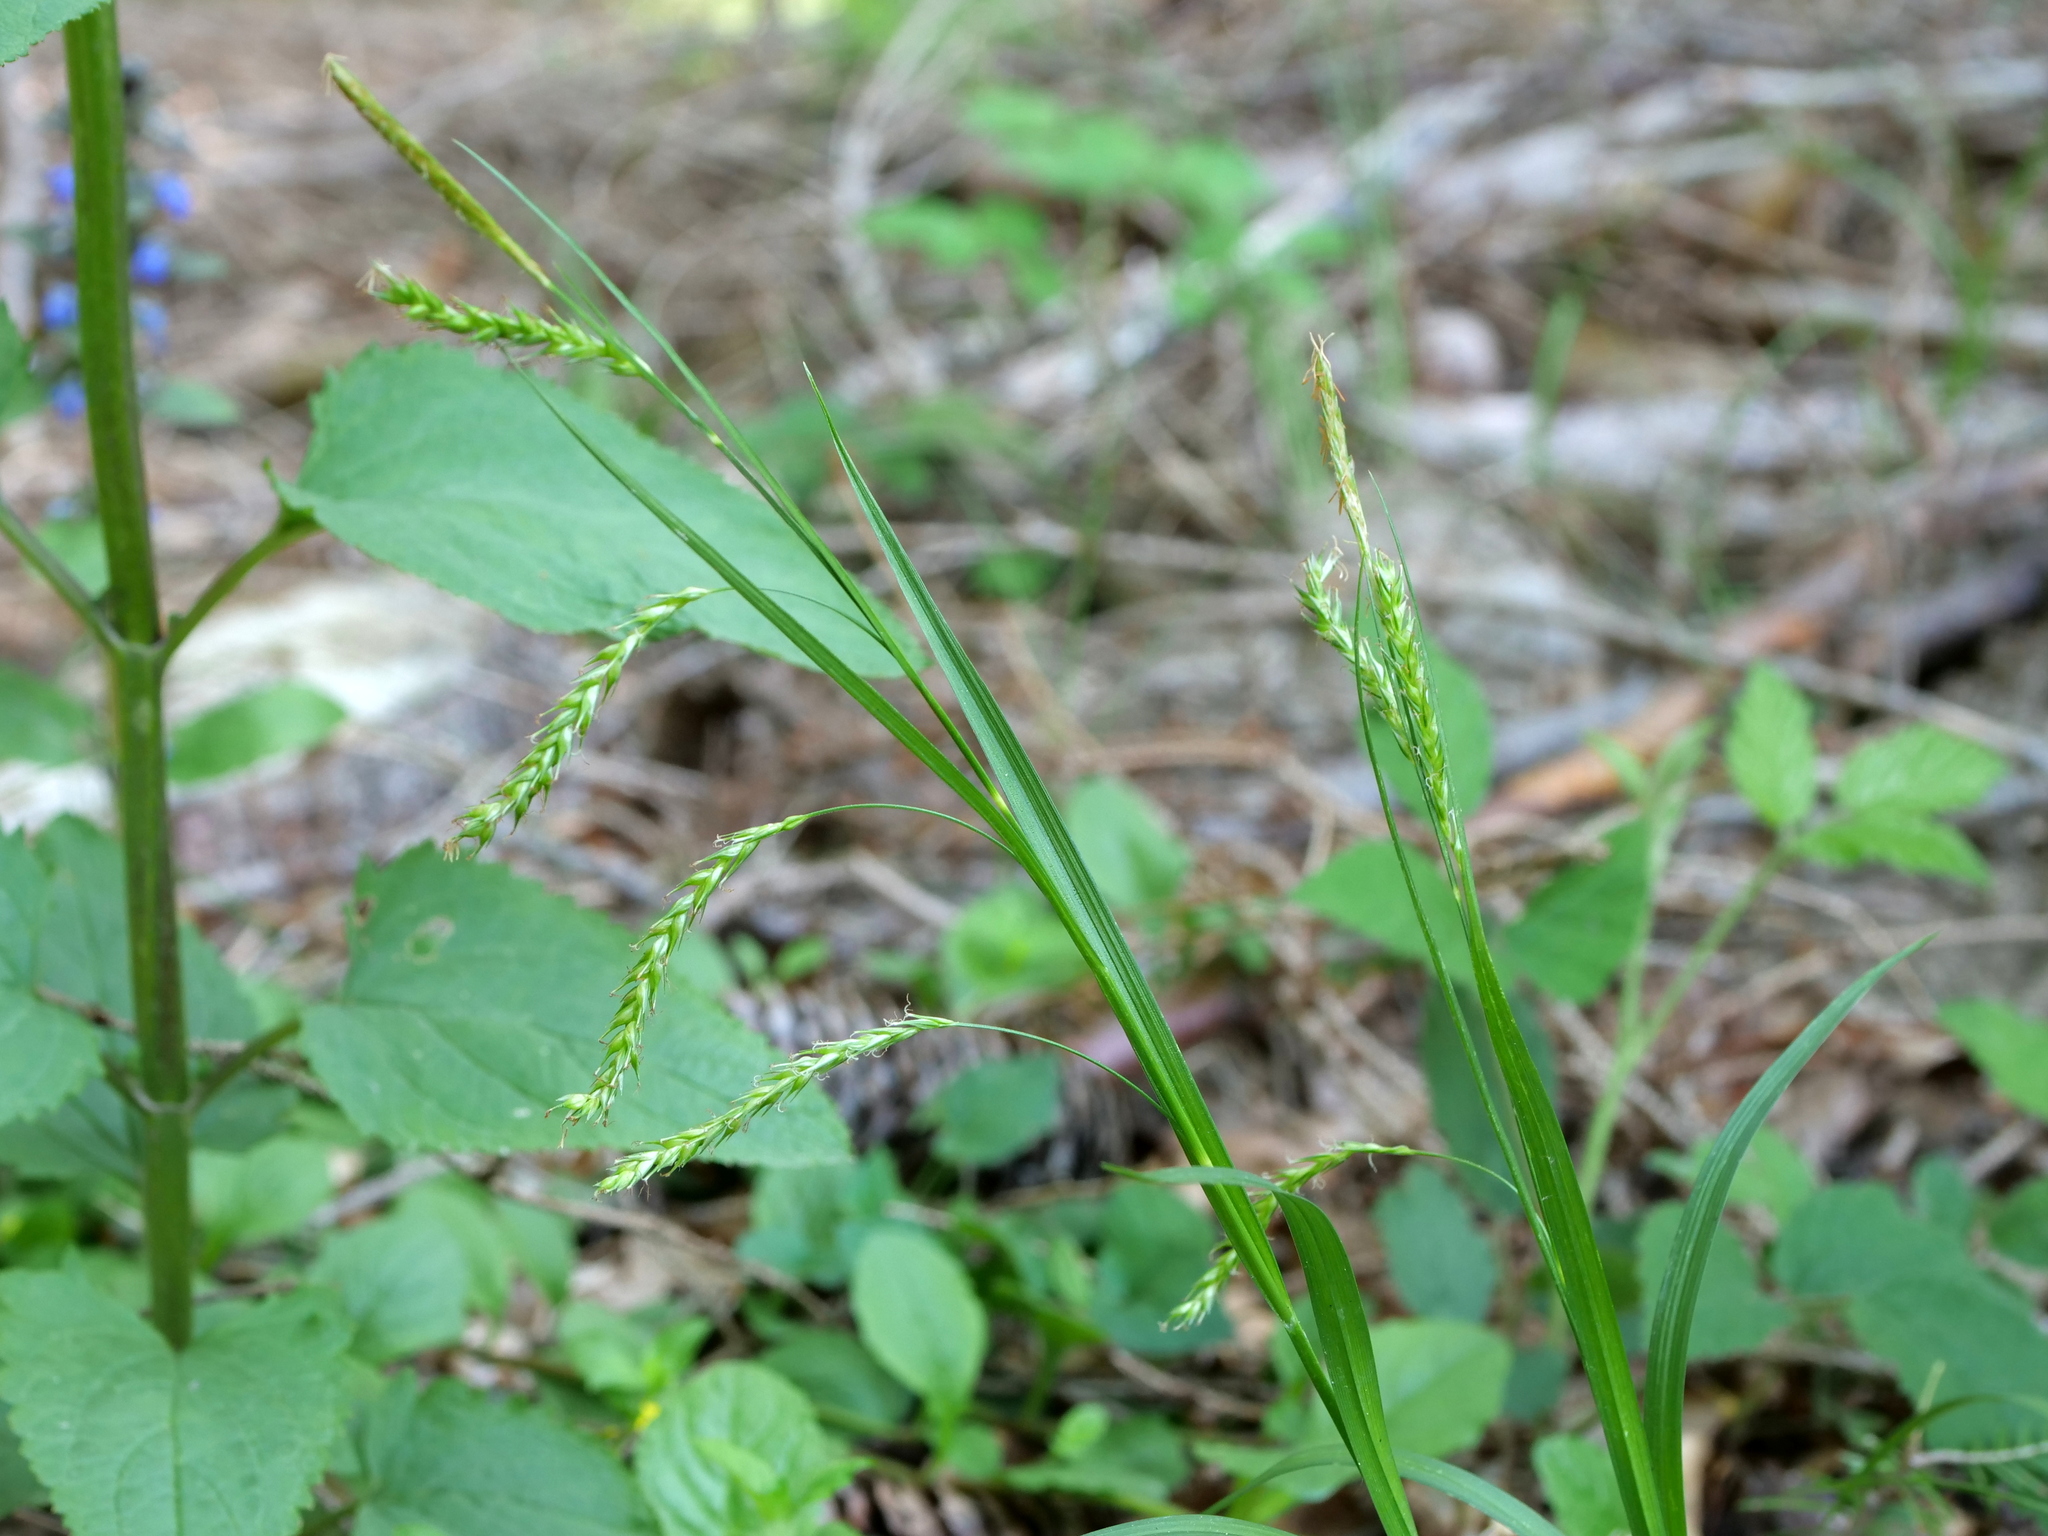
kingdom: Plantae
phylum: Tracheophyta
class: Liliopsida
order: Poales
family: Cyperaceae
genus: Carex
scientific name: Carex sylvatica
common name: Wood-sedge
